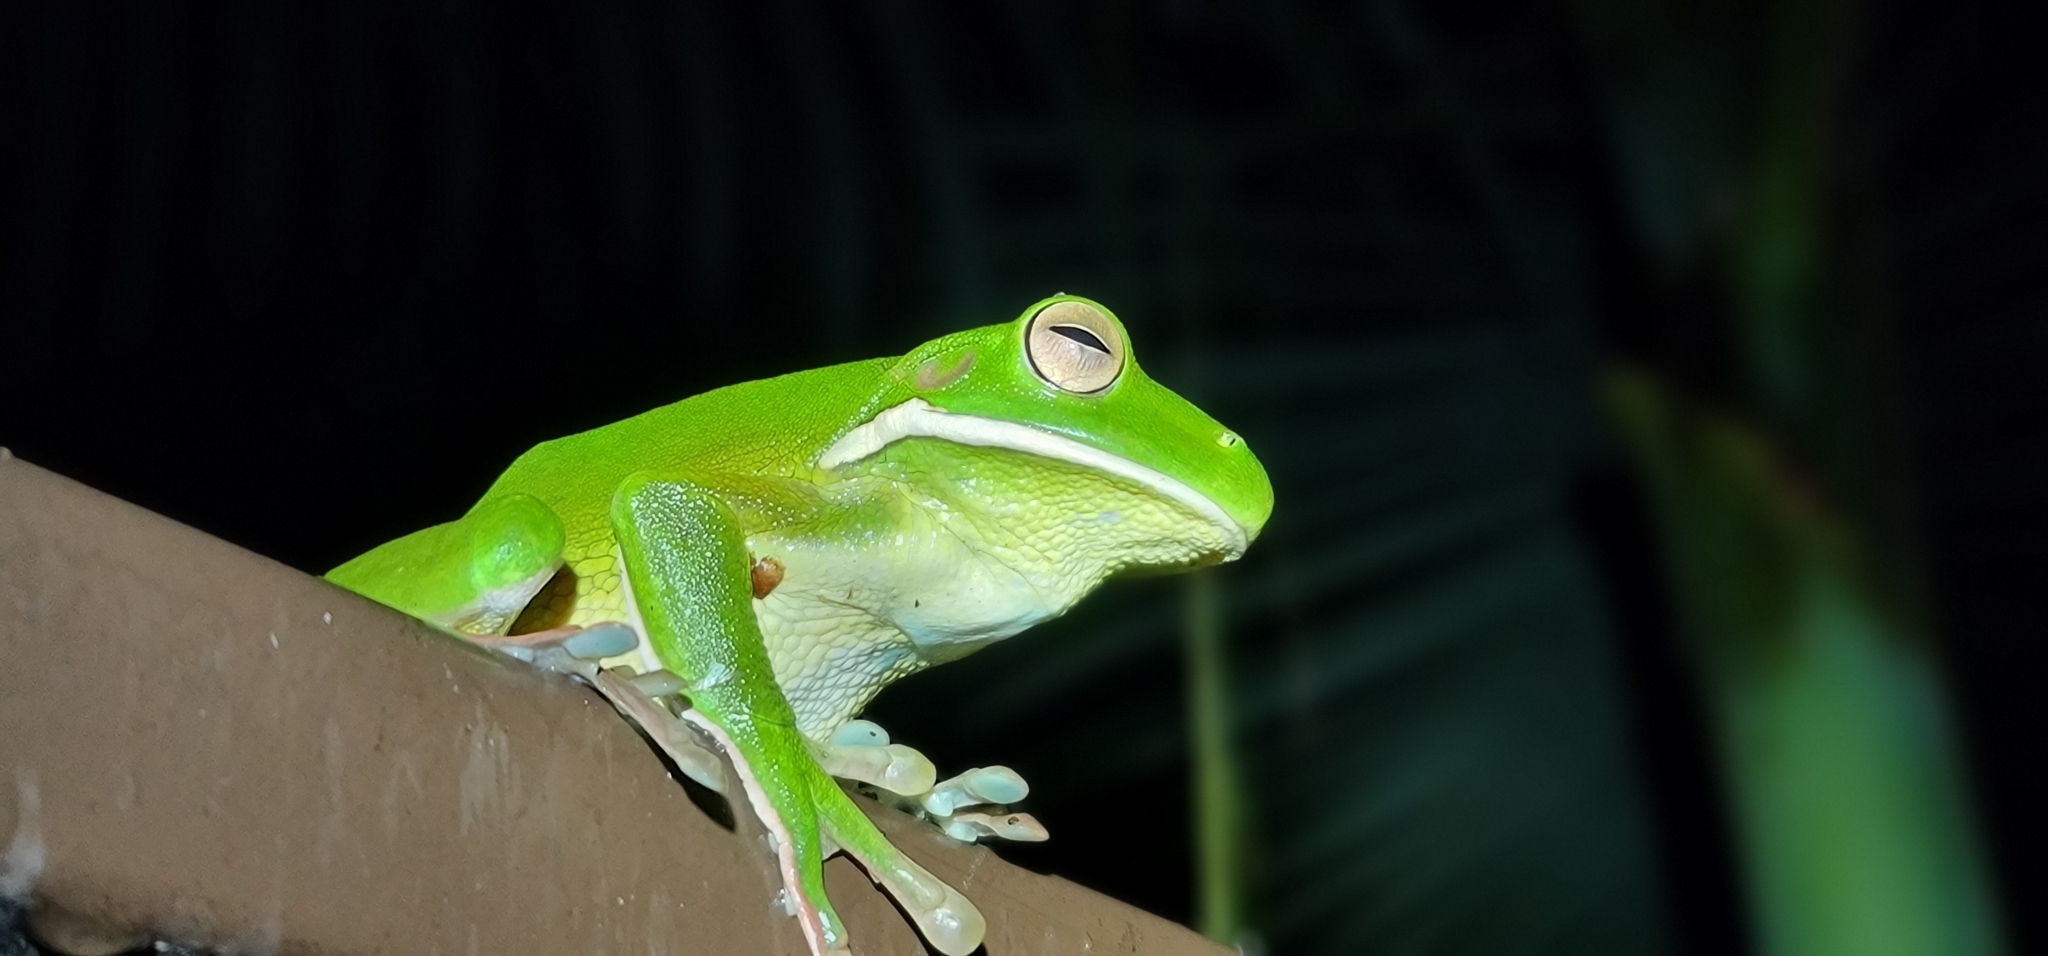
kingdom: Animalia
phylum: Chordata
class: Amphibia
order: Anura
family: Pelodryadidae
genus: Nyctimystes
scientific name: Nyctimystes infrafrenatus
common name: Australian giant treefrog
